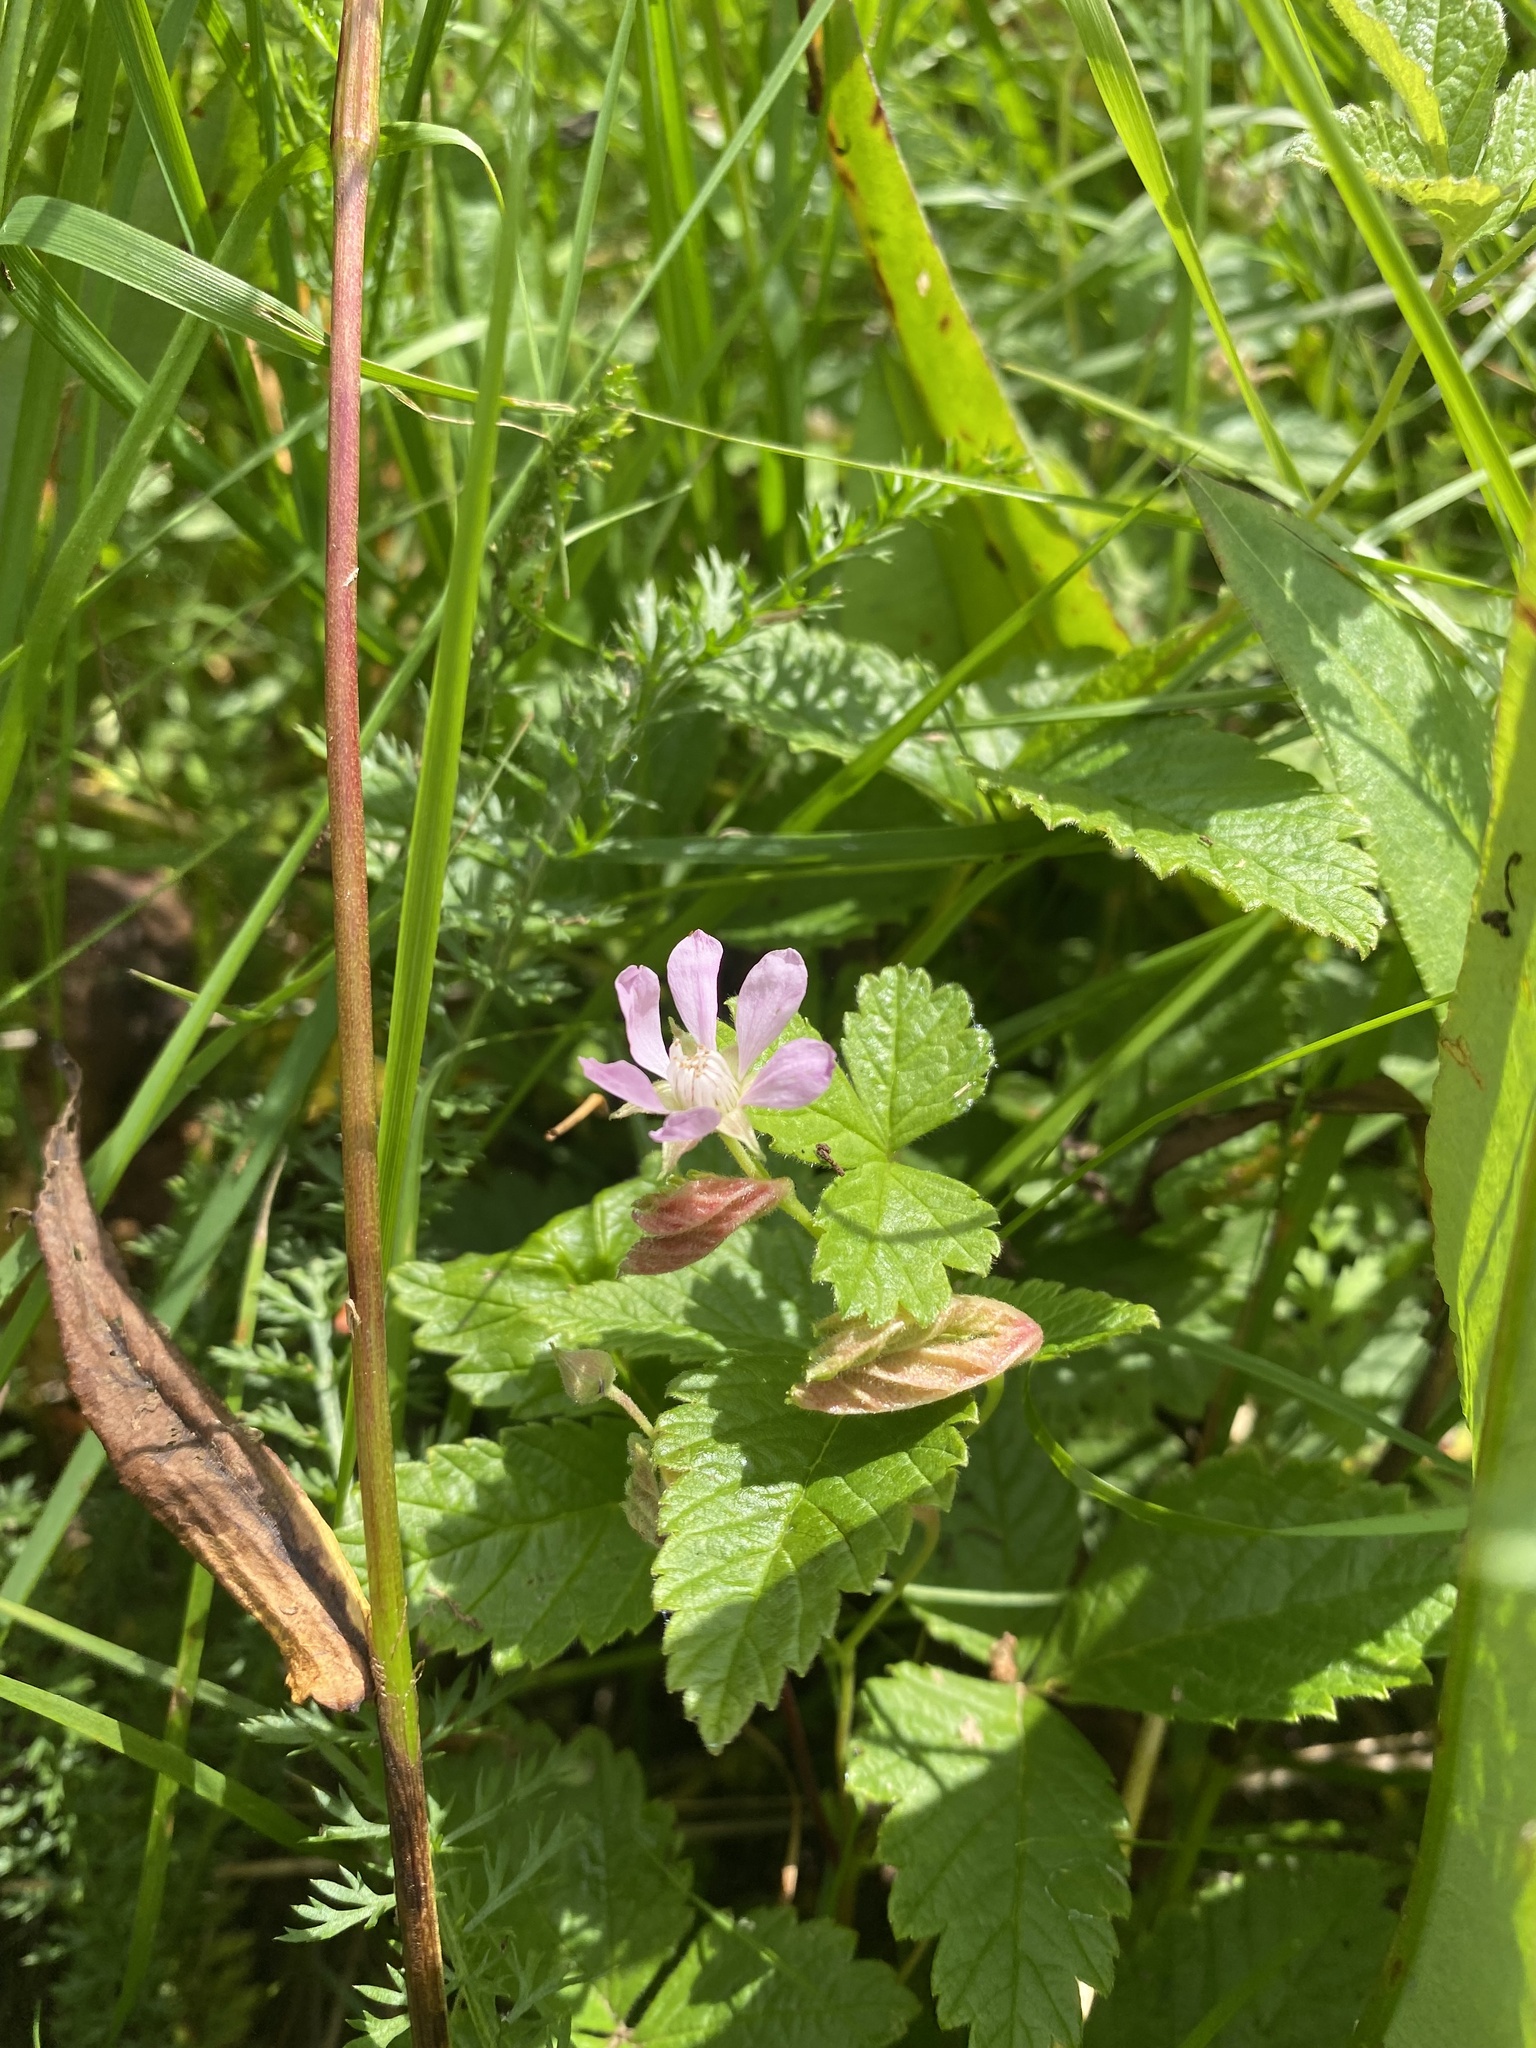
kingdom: Plantae
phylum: Tracheophyta
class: Magnoliopsida
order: Rosales
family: Rosaceae
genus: Rubus
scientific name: Rubus arcticus
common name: Arctic bramble
